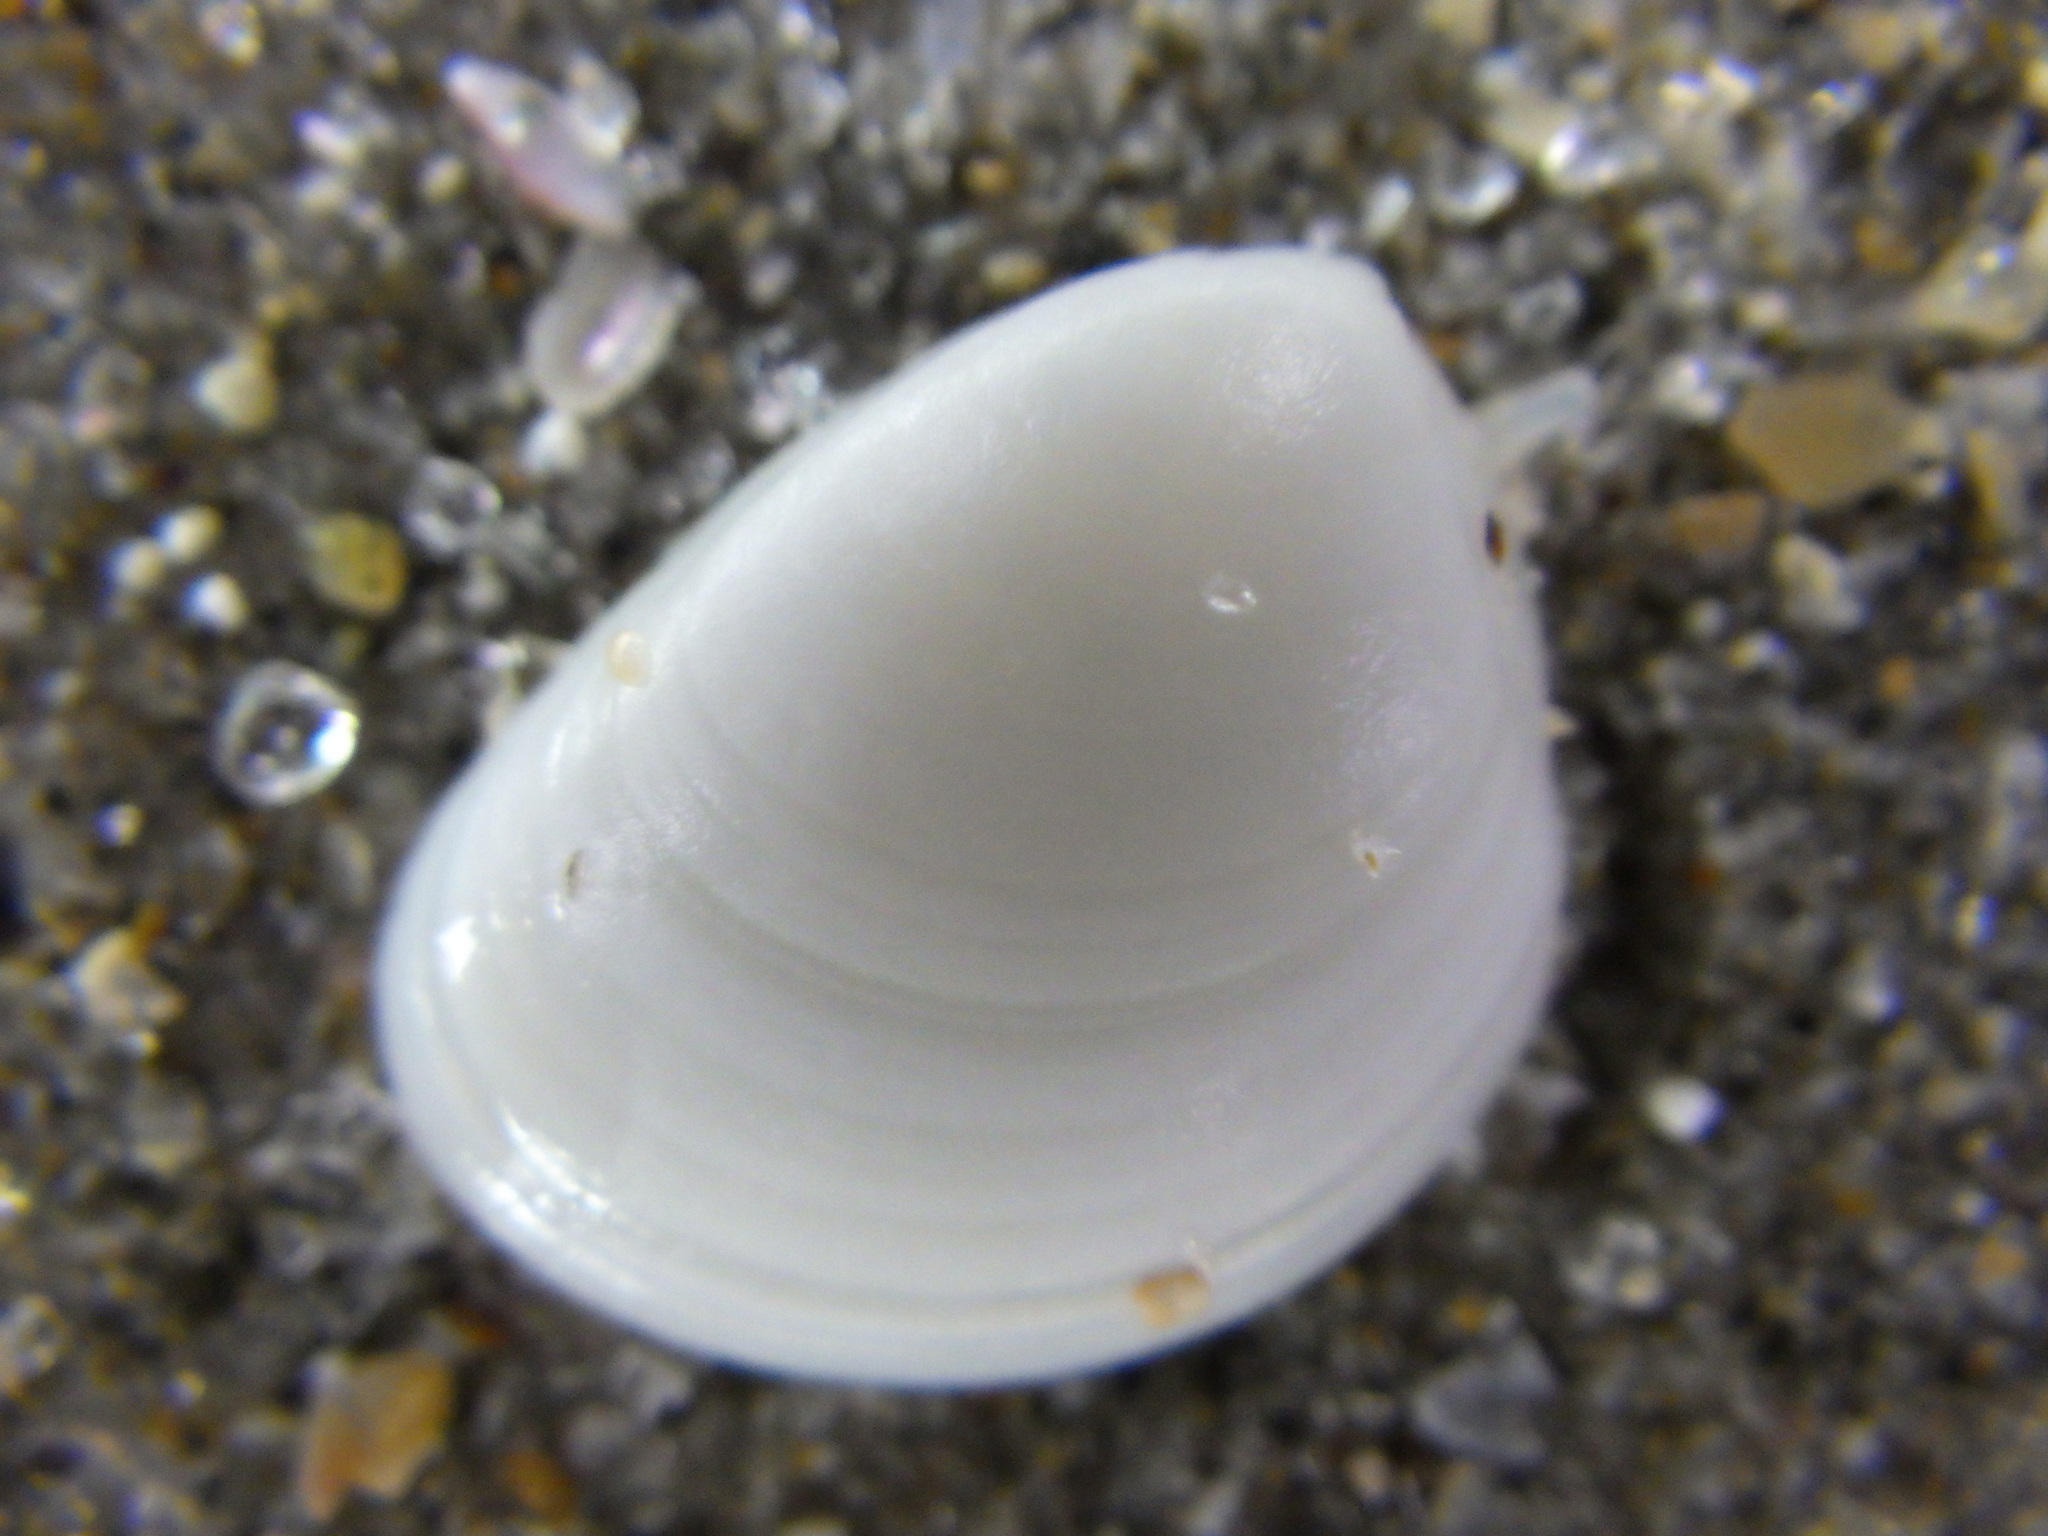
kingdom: Animalia
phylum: Mollusca
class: Bivalvia
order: Nuculida
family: Nuculidae
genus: Nucula
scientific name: Nucula nitidula
